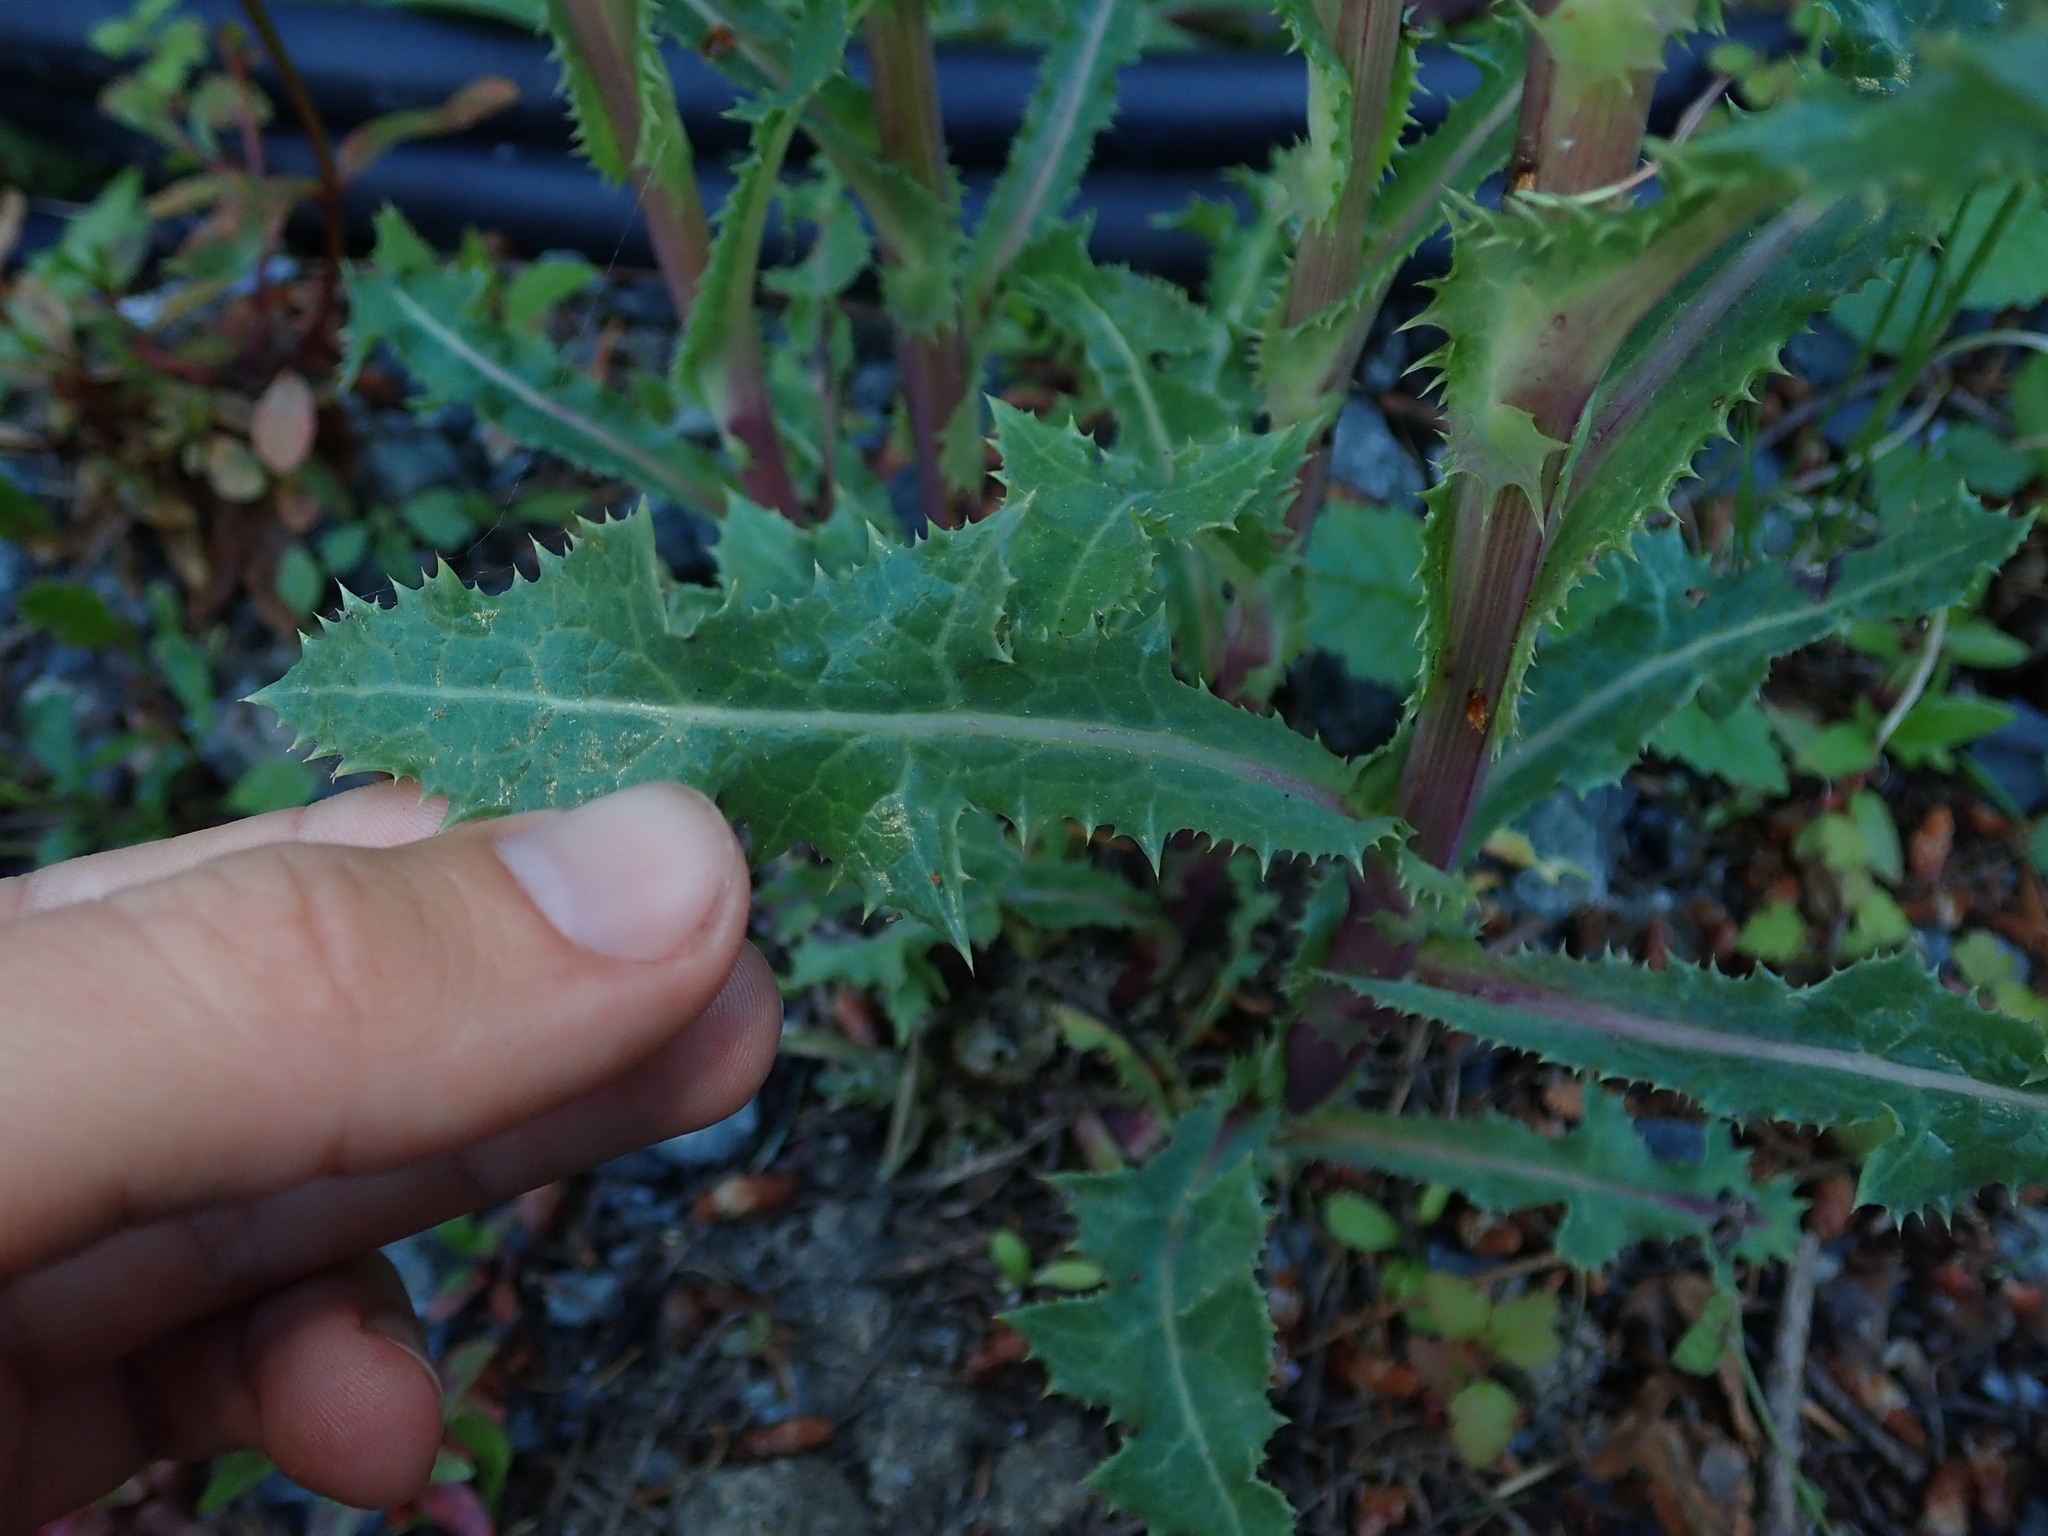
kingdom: Plantae
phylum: Tracheophyta
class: Magnoliopsida
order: Asterales
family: Asteraceae
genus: Sonchus
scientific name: Sonchus asper
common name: Prickly sow-thistle
